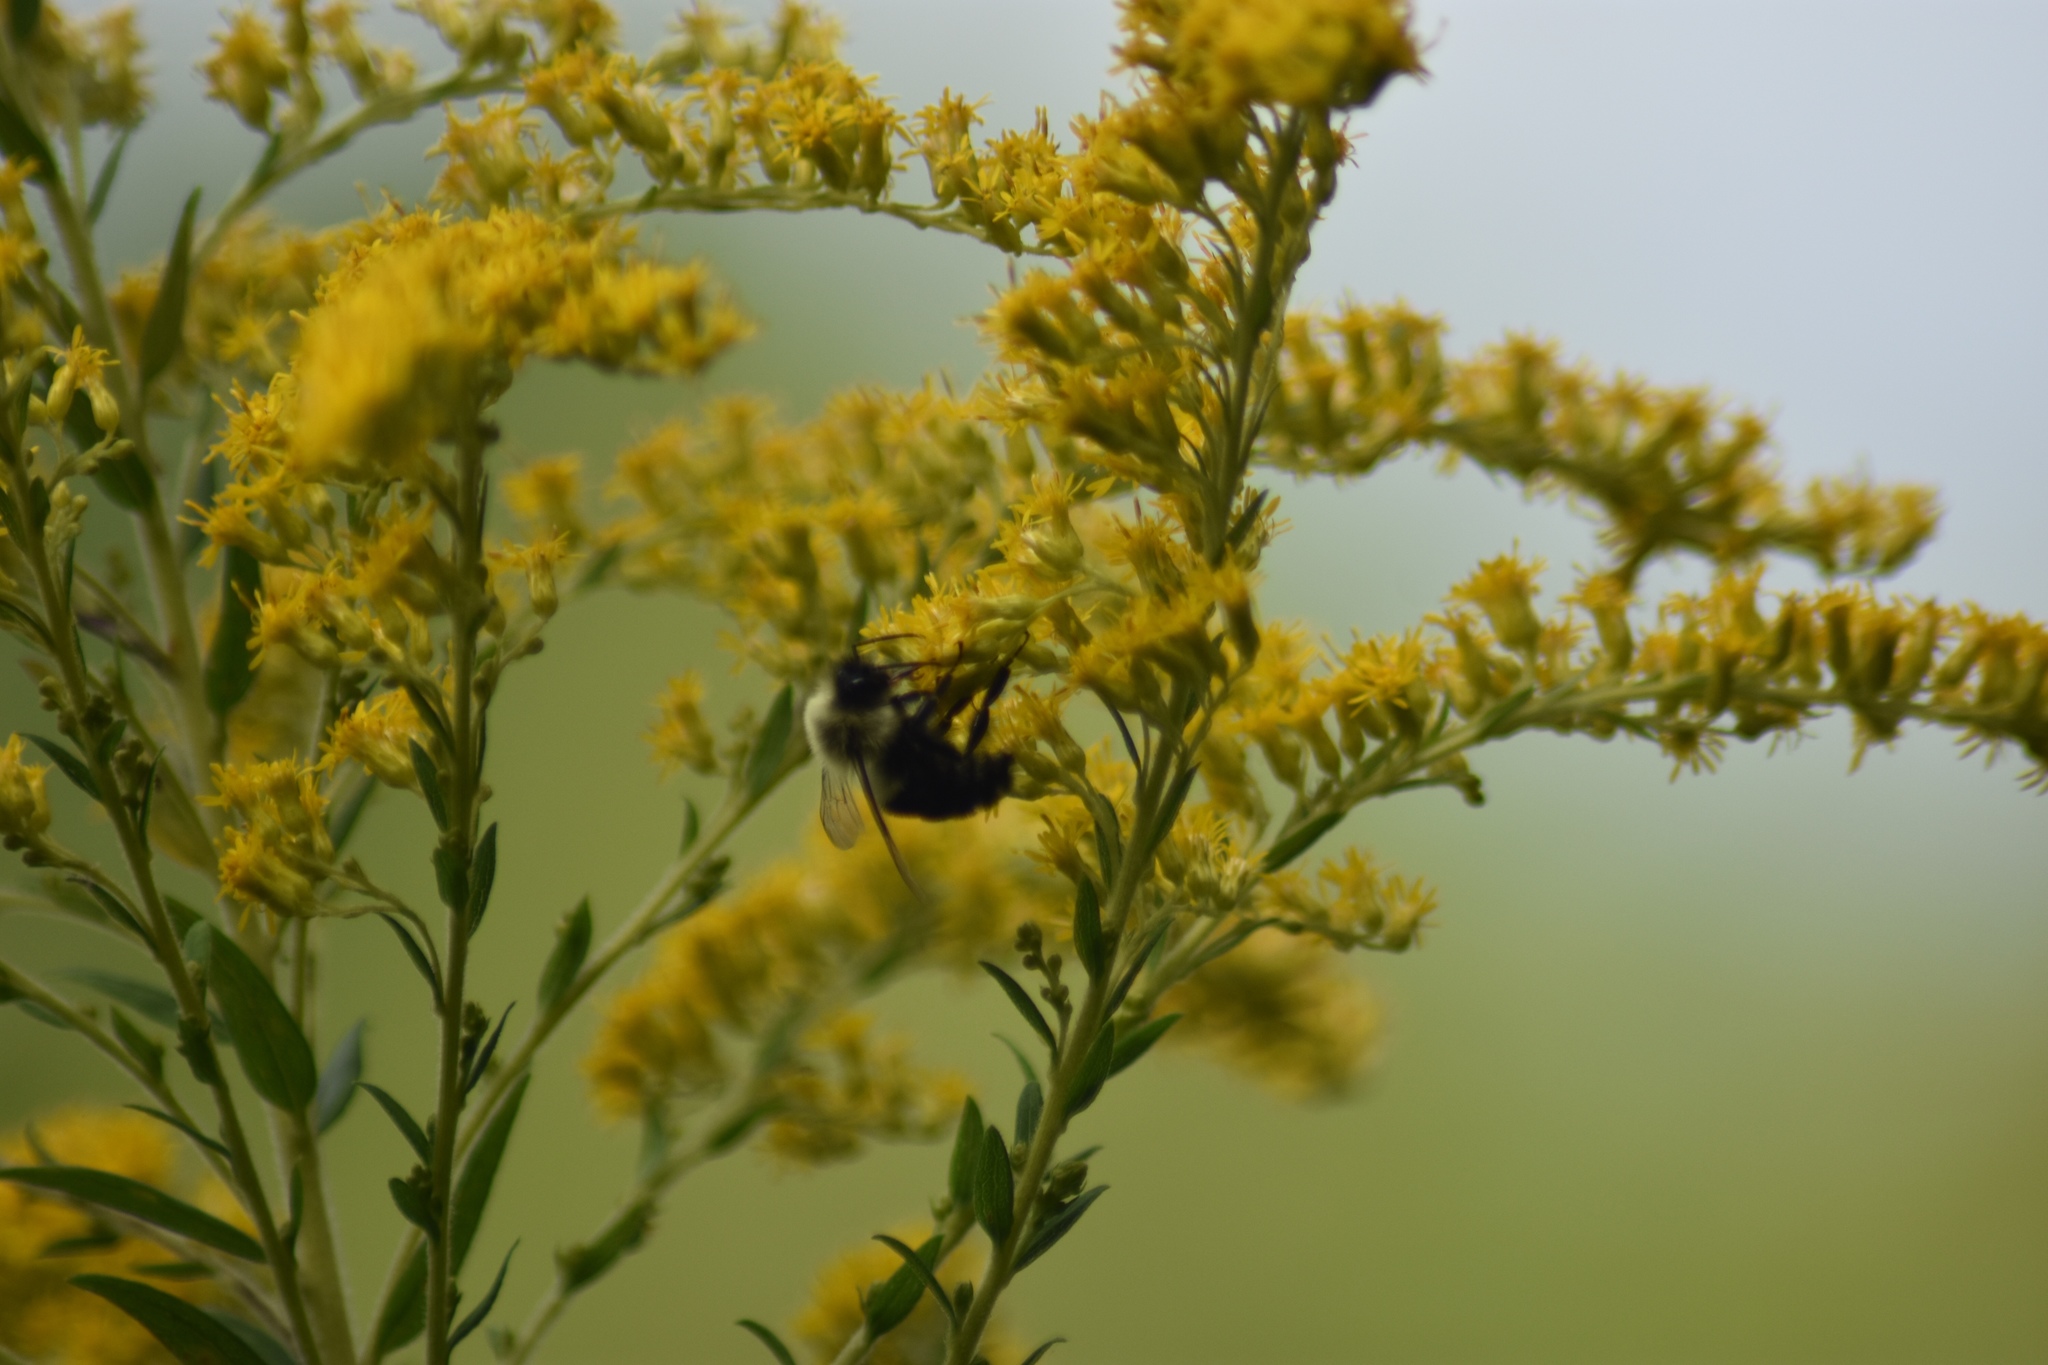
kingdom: Animalia
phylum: Arthropoda
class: Insecta
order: Hymenoptera
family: Apidae
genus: Bombus
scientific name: Bombus impatiens
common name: Common eastern bumble bee
